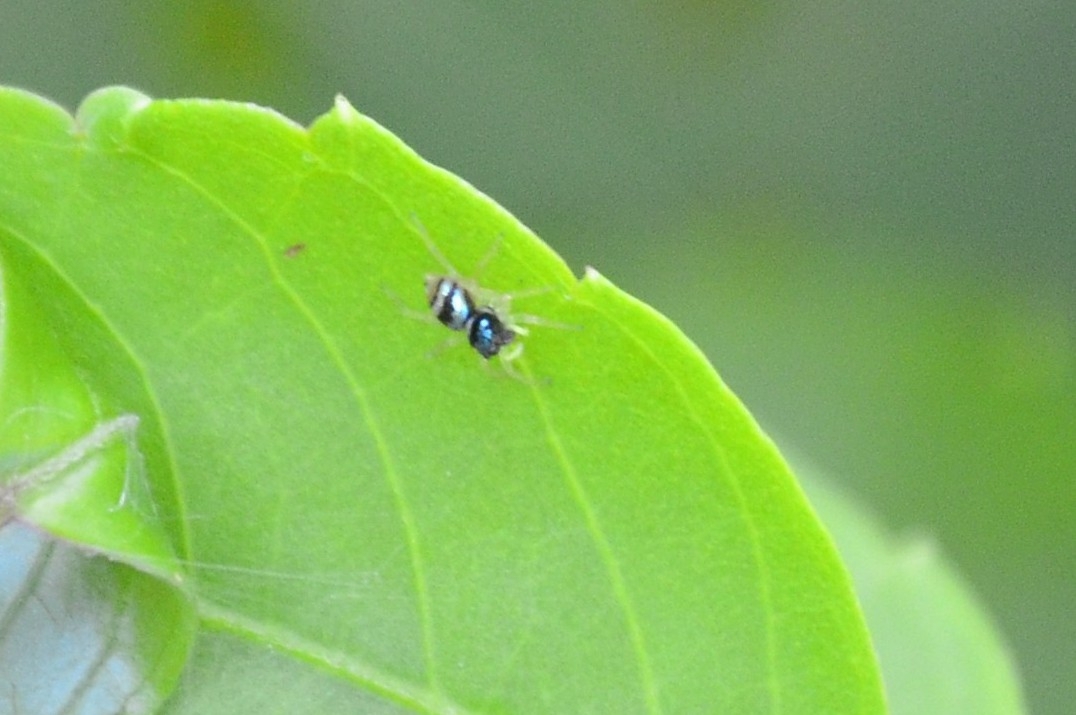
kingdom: Animalia
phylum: Arthropoda
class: Arachnida
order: Araneae
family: Salticidae
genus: Phintella
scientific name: Phintella vittata
